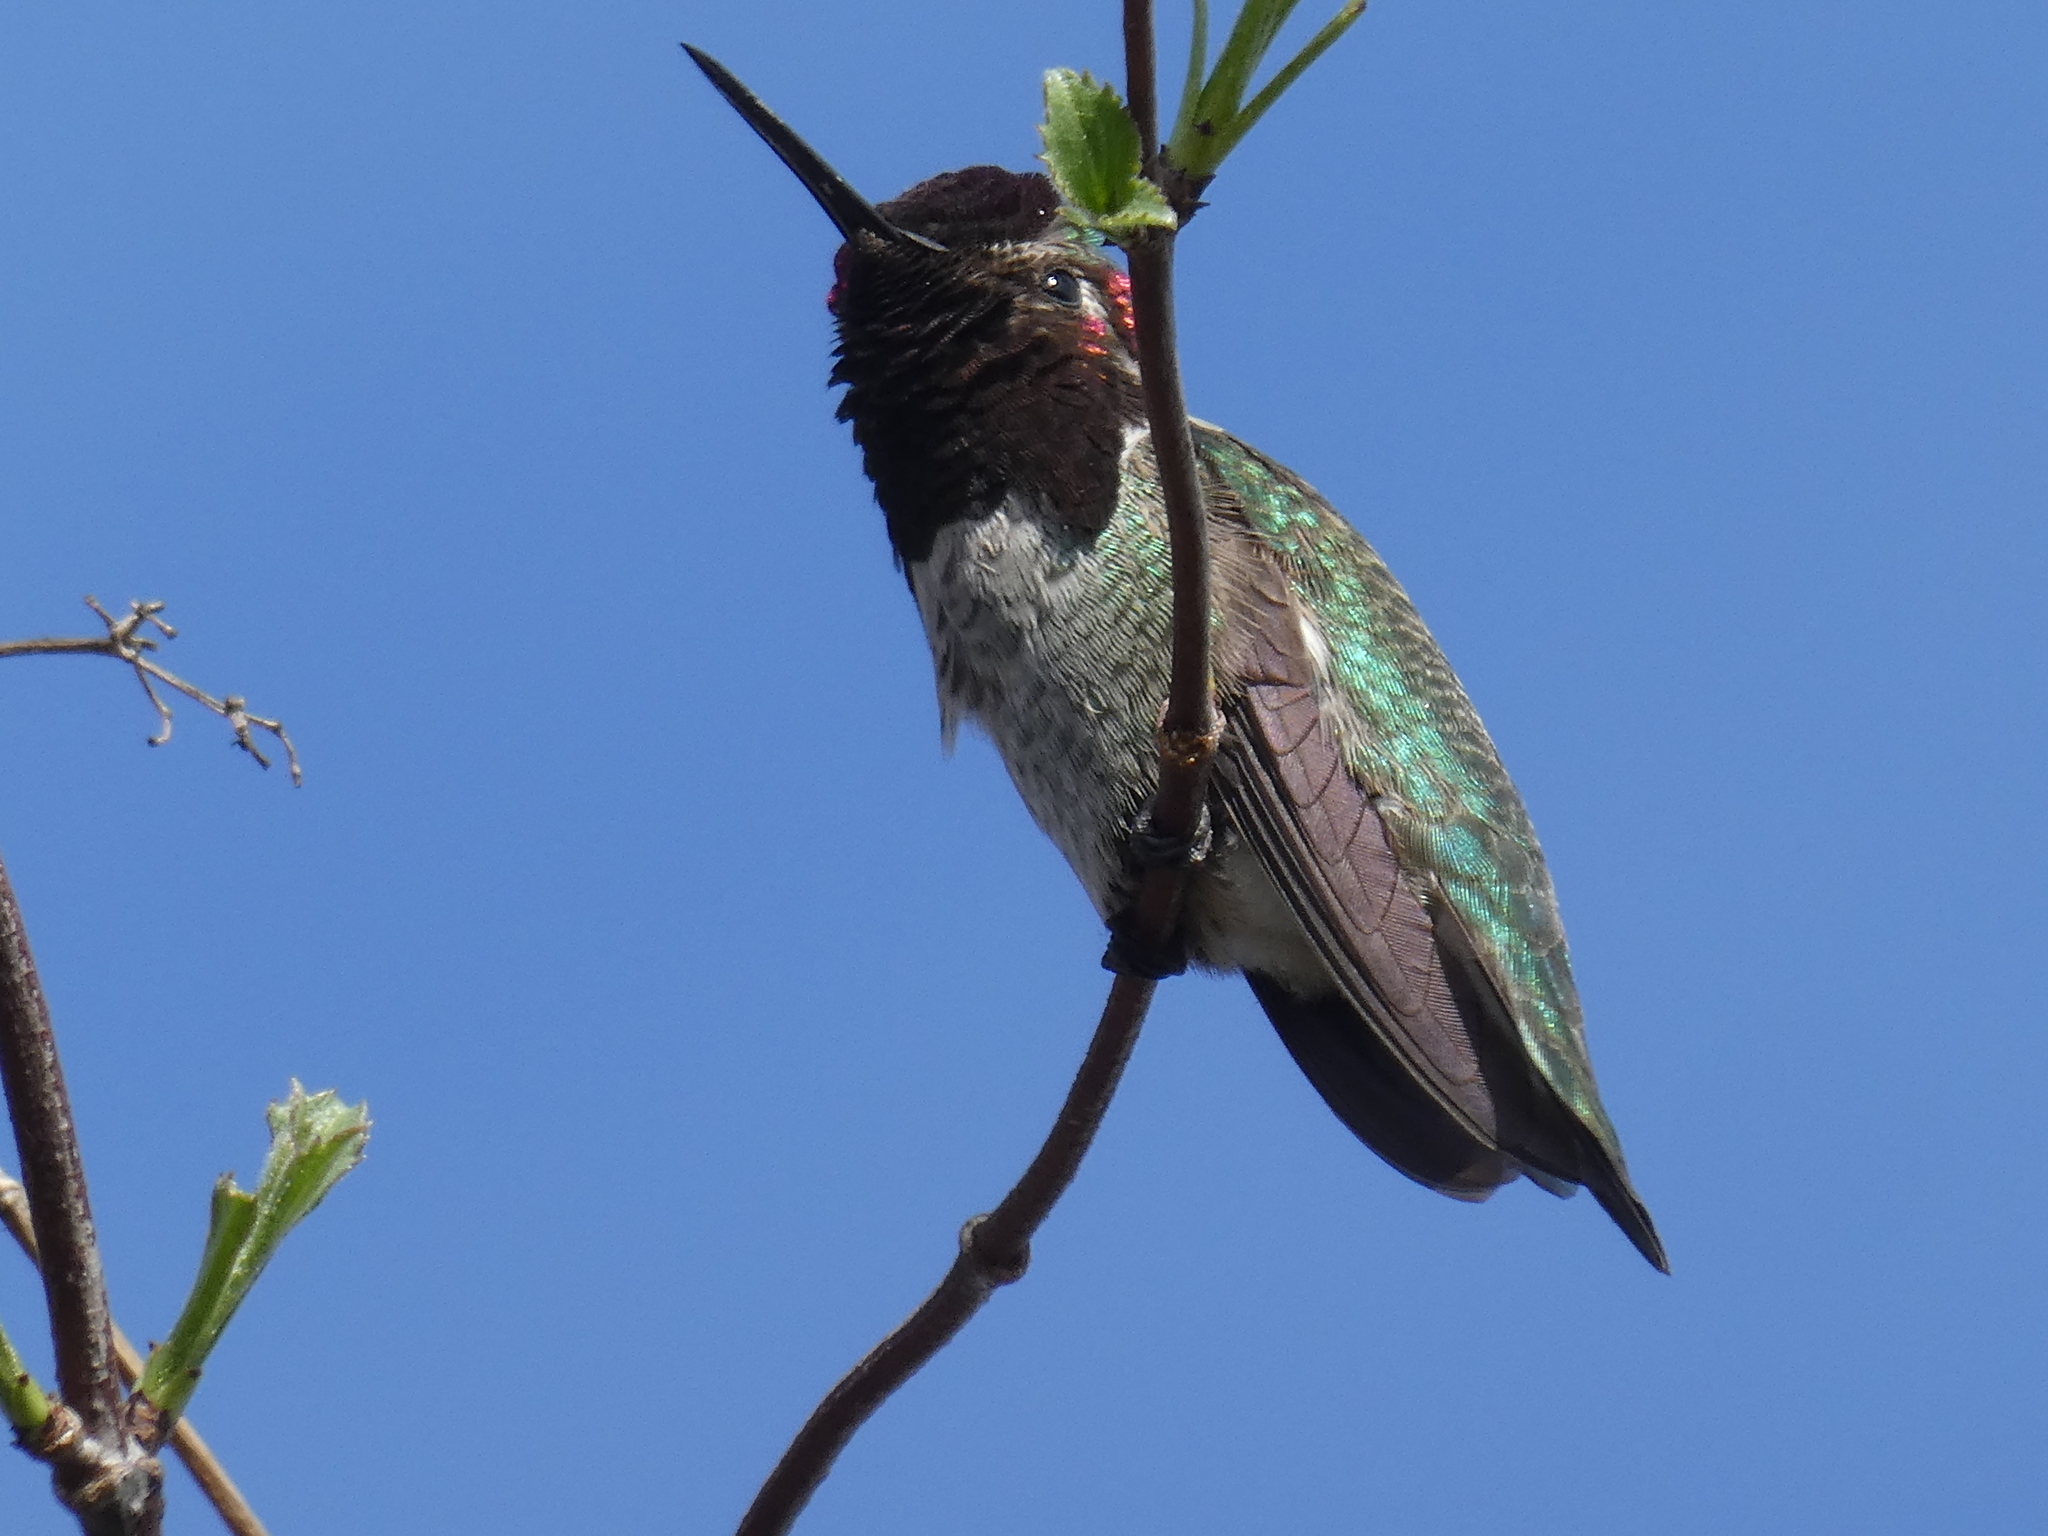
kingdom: Animalia
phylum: Chordata
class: Aves
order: Apodiformes
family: Trochilidae
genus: Calypte
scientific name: Calypte anna
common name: Anna's hummingbird
